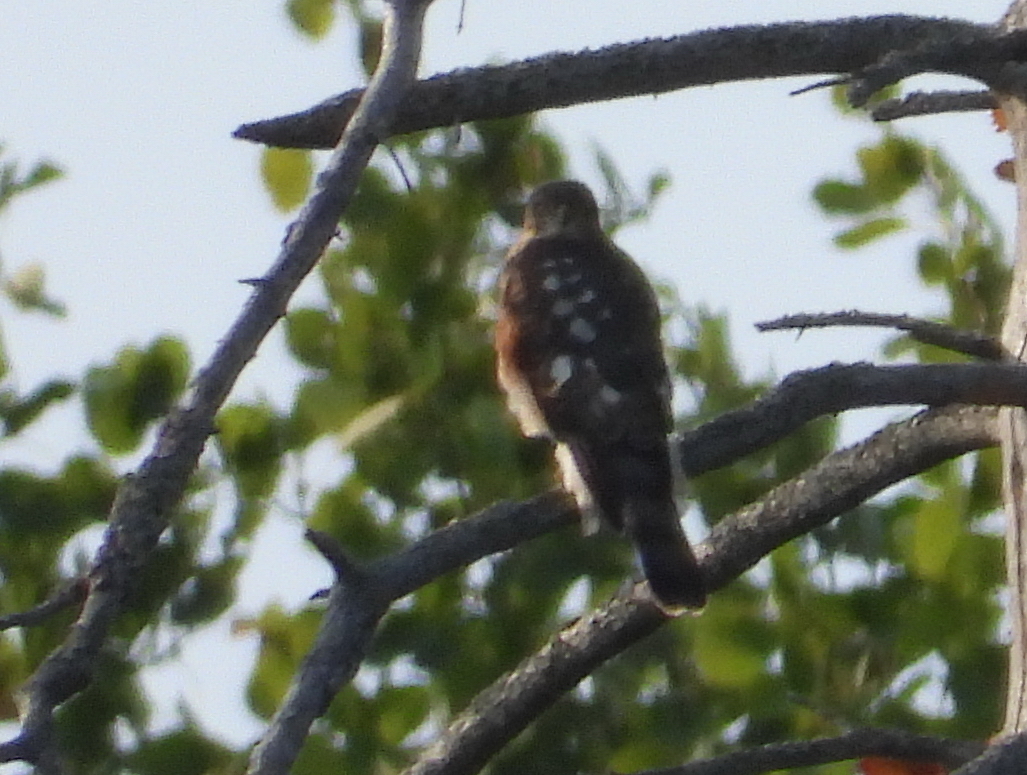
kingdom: Animalia
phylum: Chordata
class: Aves
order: Accipitriformes
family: Accipitridae
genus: Accipiter
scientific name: Accipiter nisus
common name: Eurasian sparrowhawk
